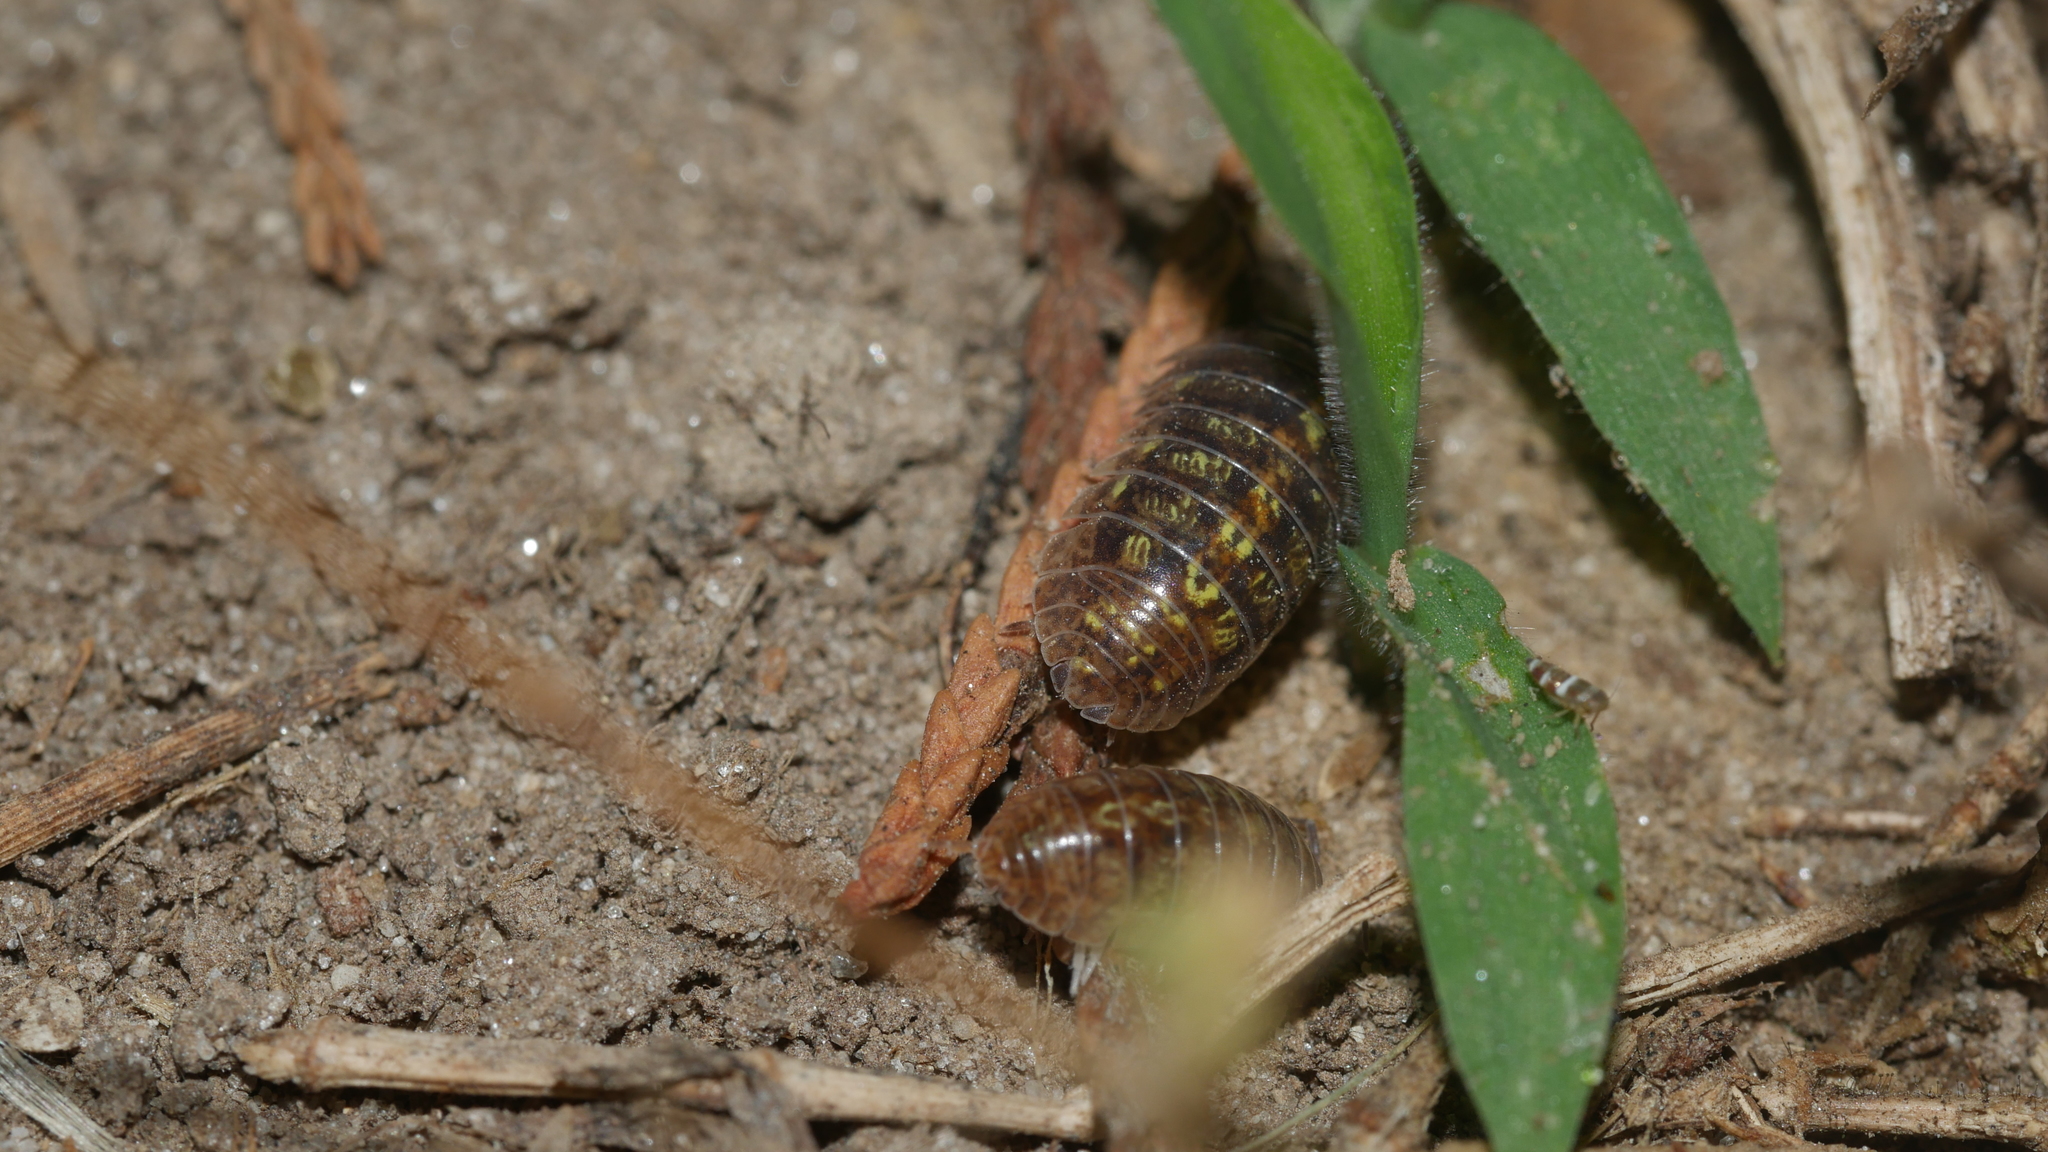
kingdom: Animalia
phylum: Arthropoda
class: Malacostraca
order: Isopoda
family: Armadillidiidae
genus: Armadillidium
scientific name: Armadillidium vulgare
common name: Common pill woodlouse
